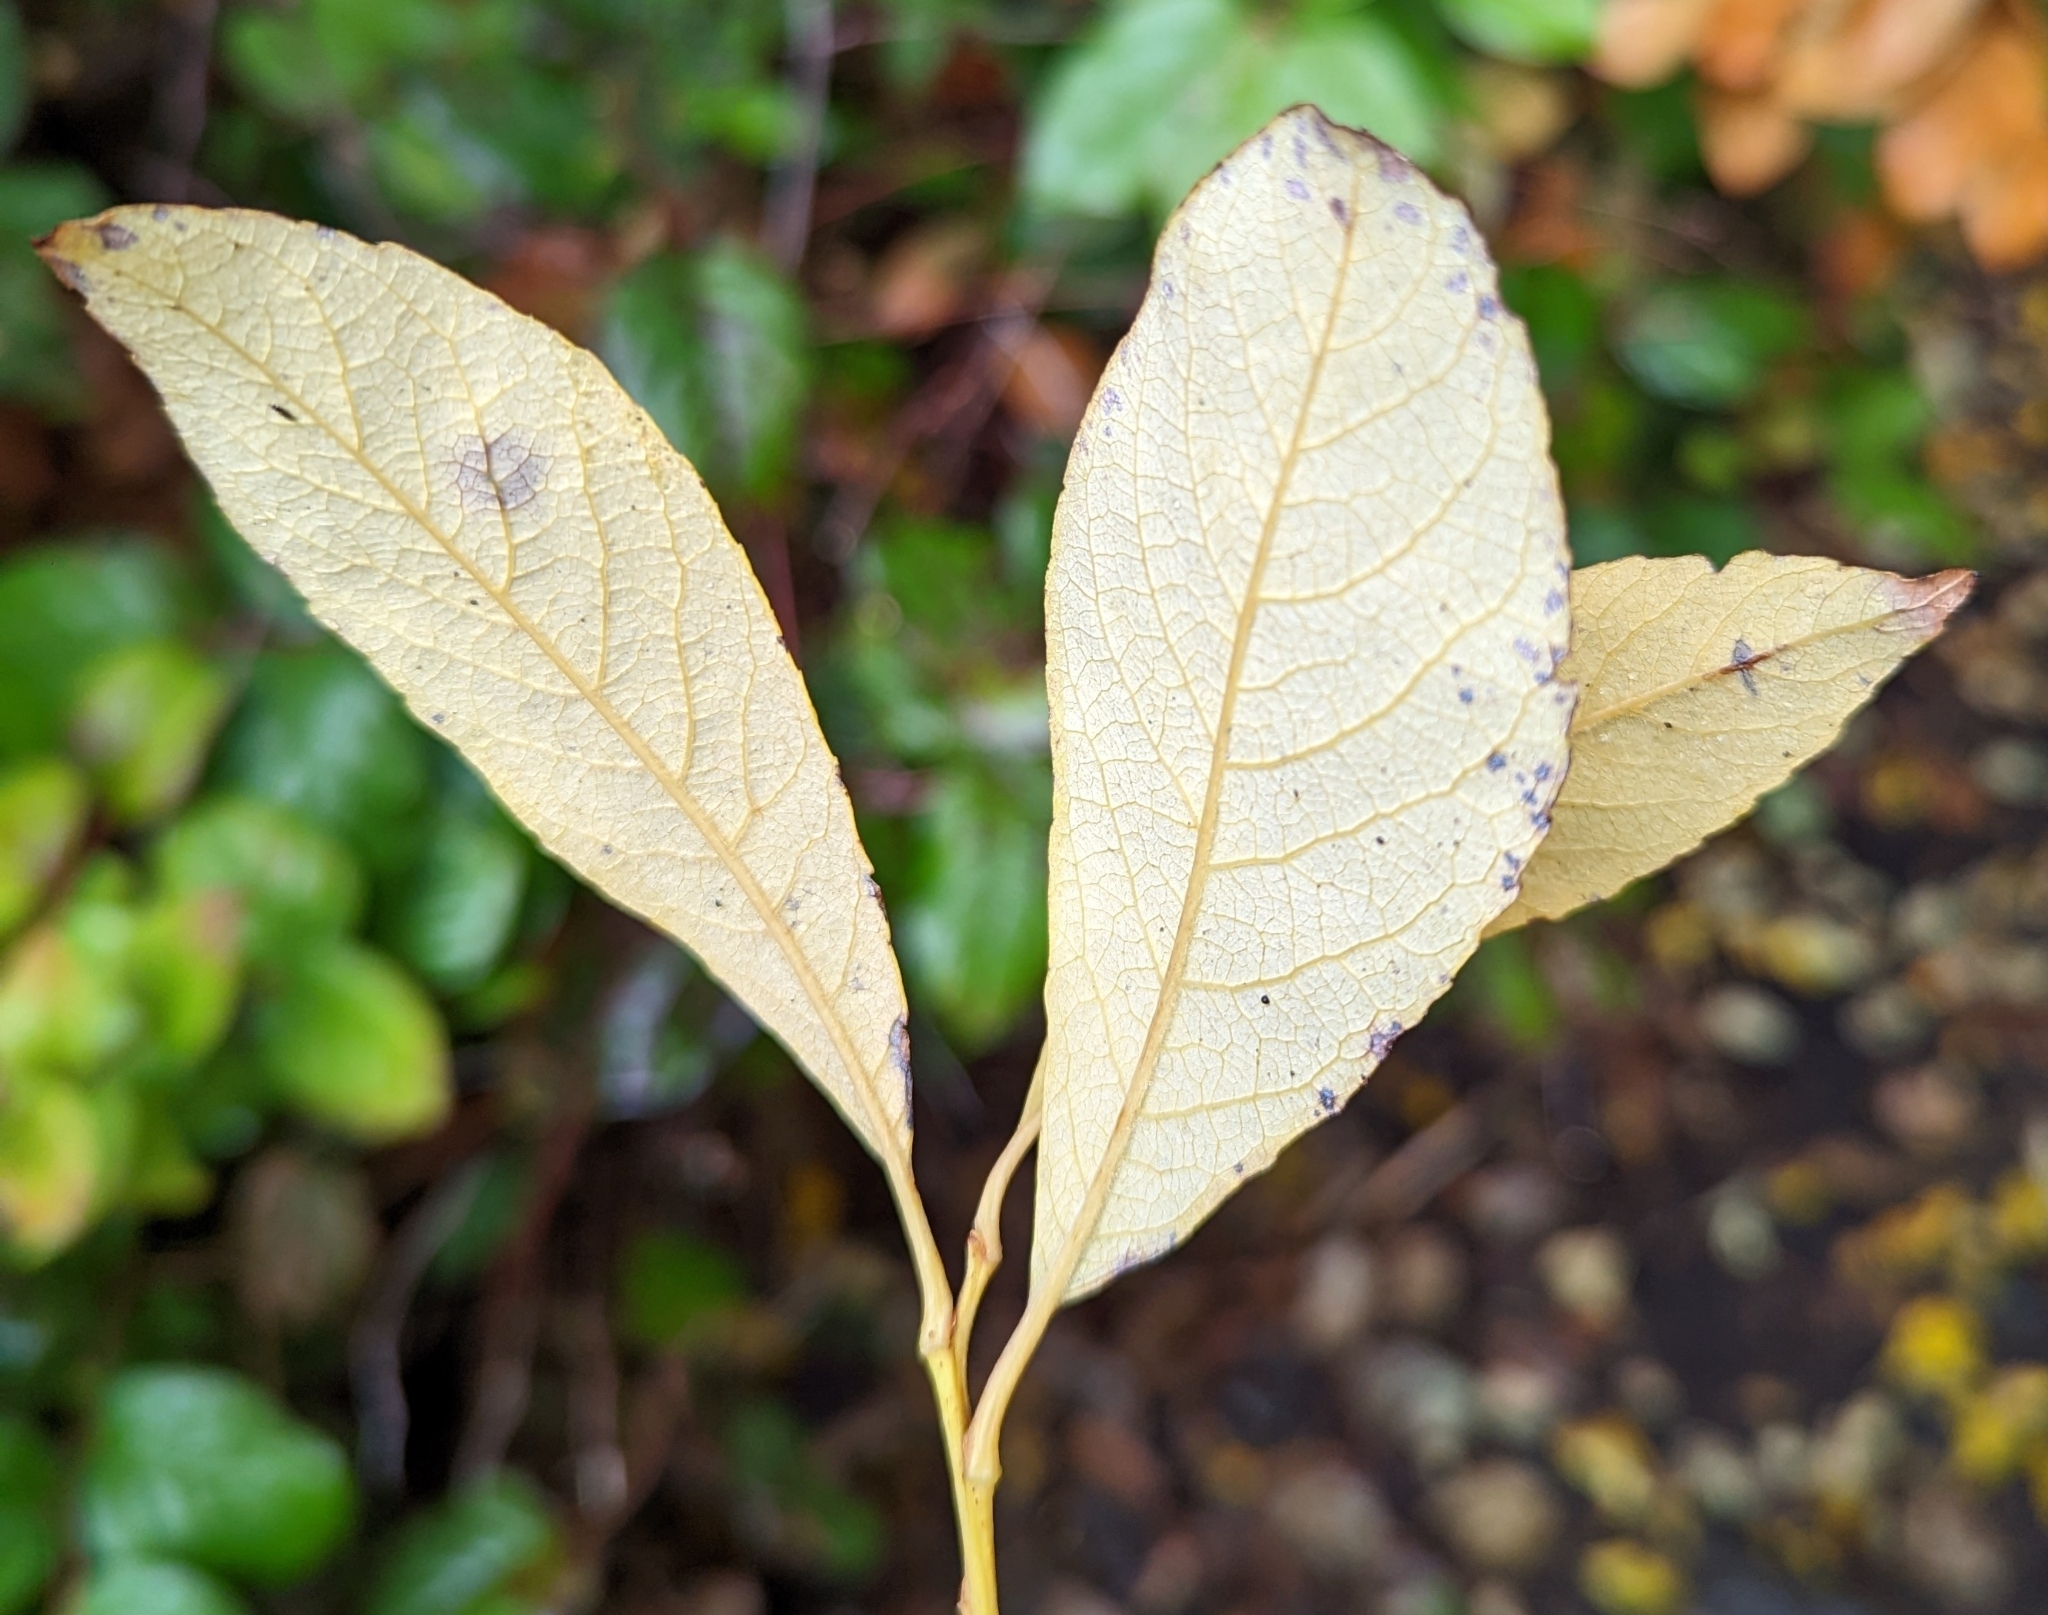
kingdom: Plantae
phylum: Tracheophyta
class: Magnoliopsida
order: Malpighiales
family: Salicaceae
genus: Salix
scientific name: Salix scouleriana
